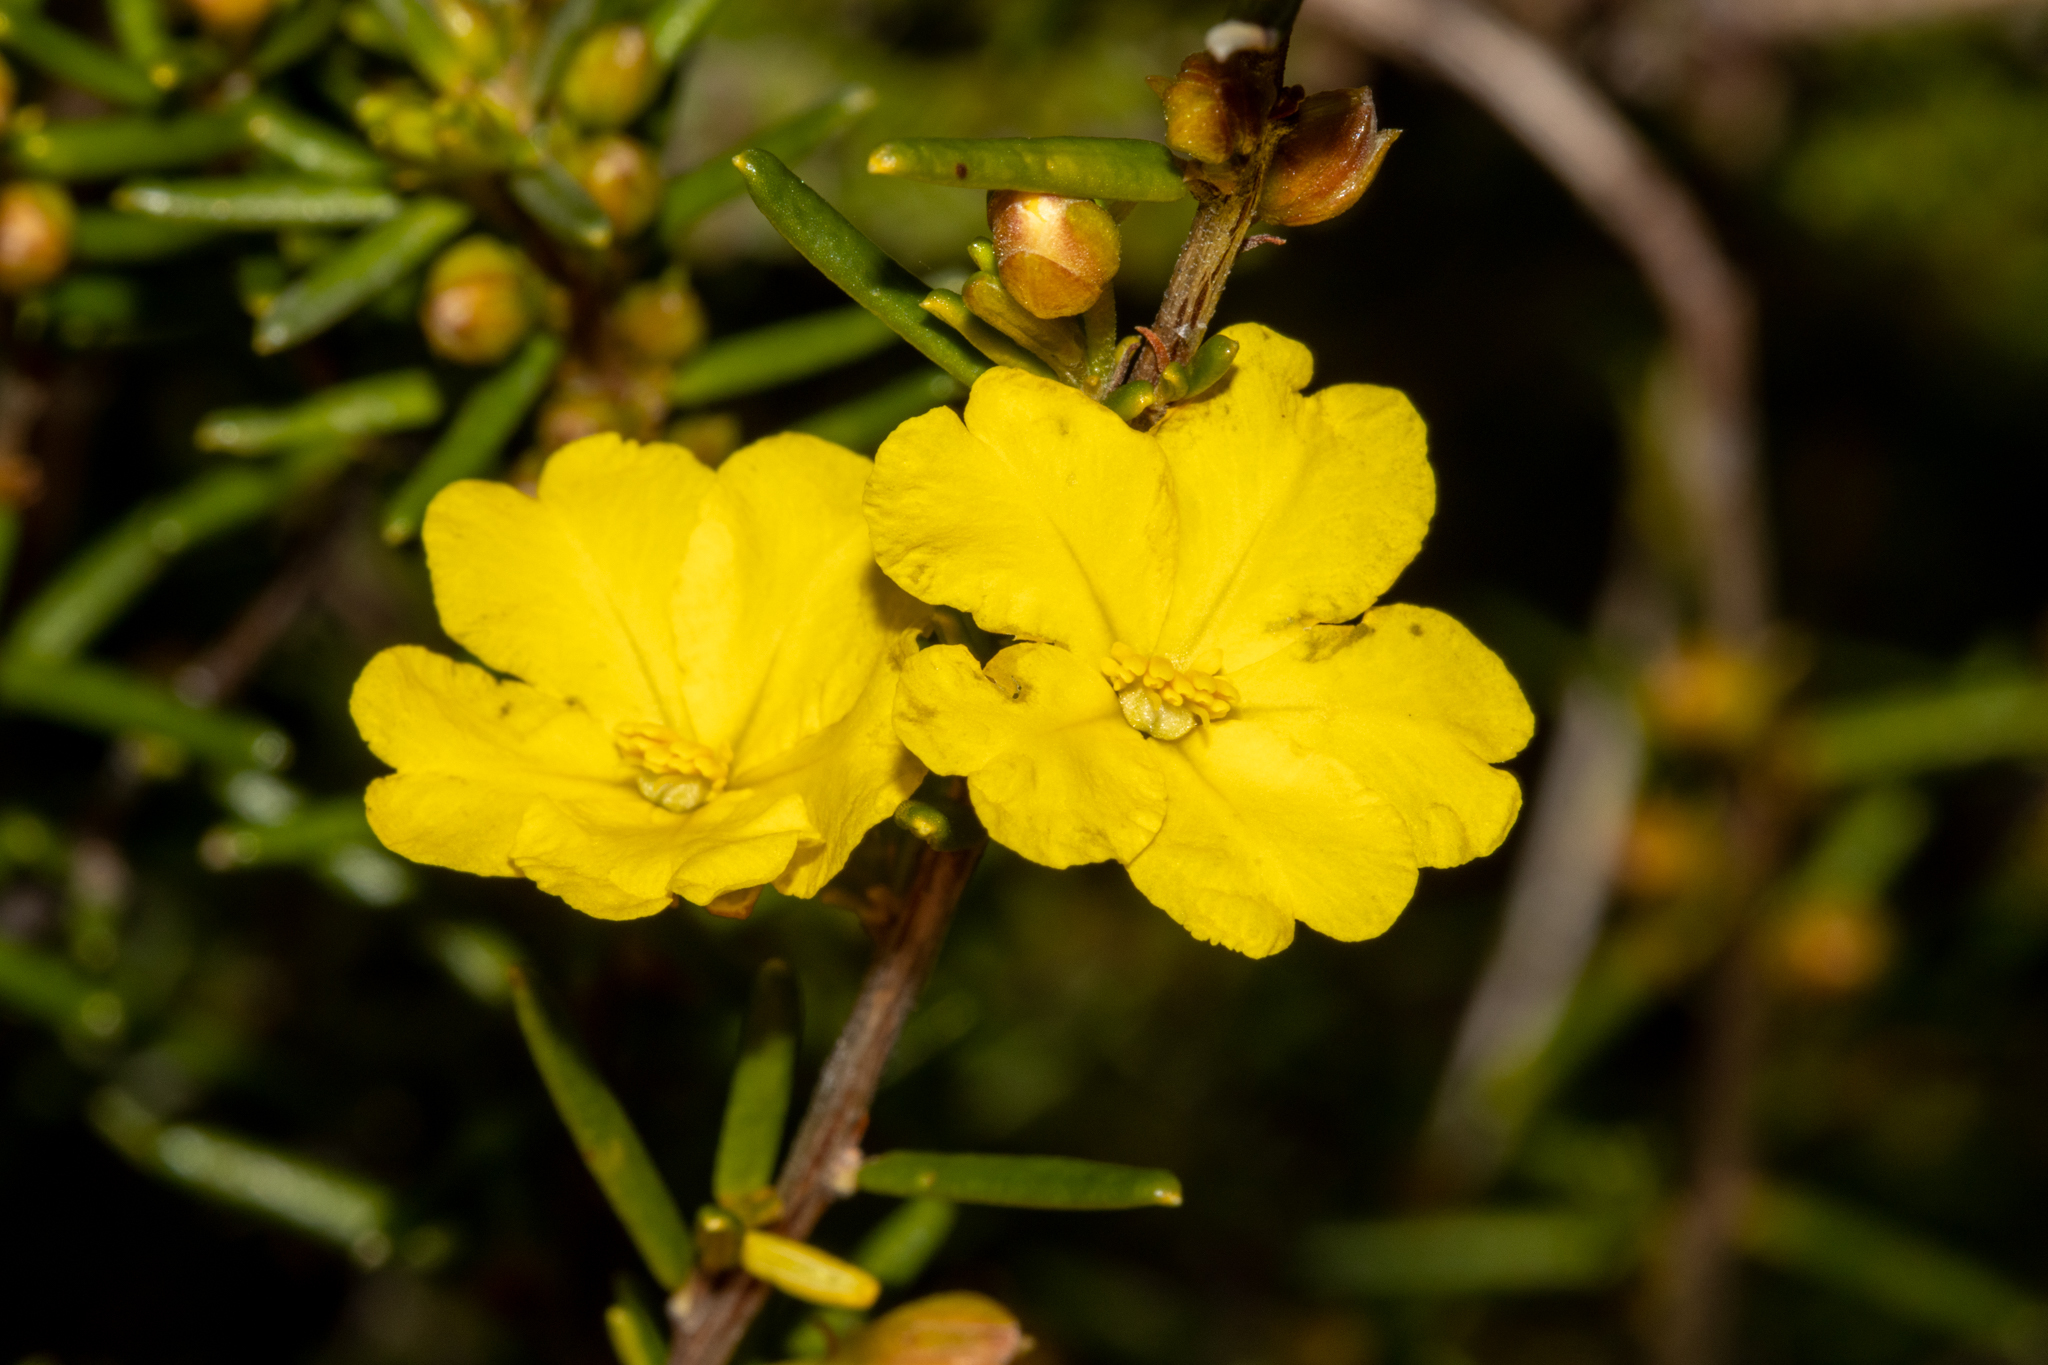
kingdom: Plantae
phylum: Tracheophyta
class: Magnoliopsida
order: Dilleniales
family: Dilleniaceae
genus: Hibbertia
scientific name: Hibbertia papillata
